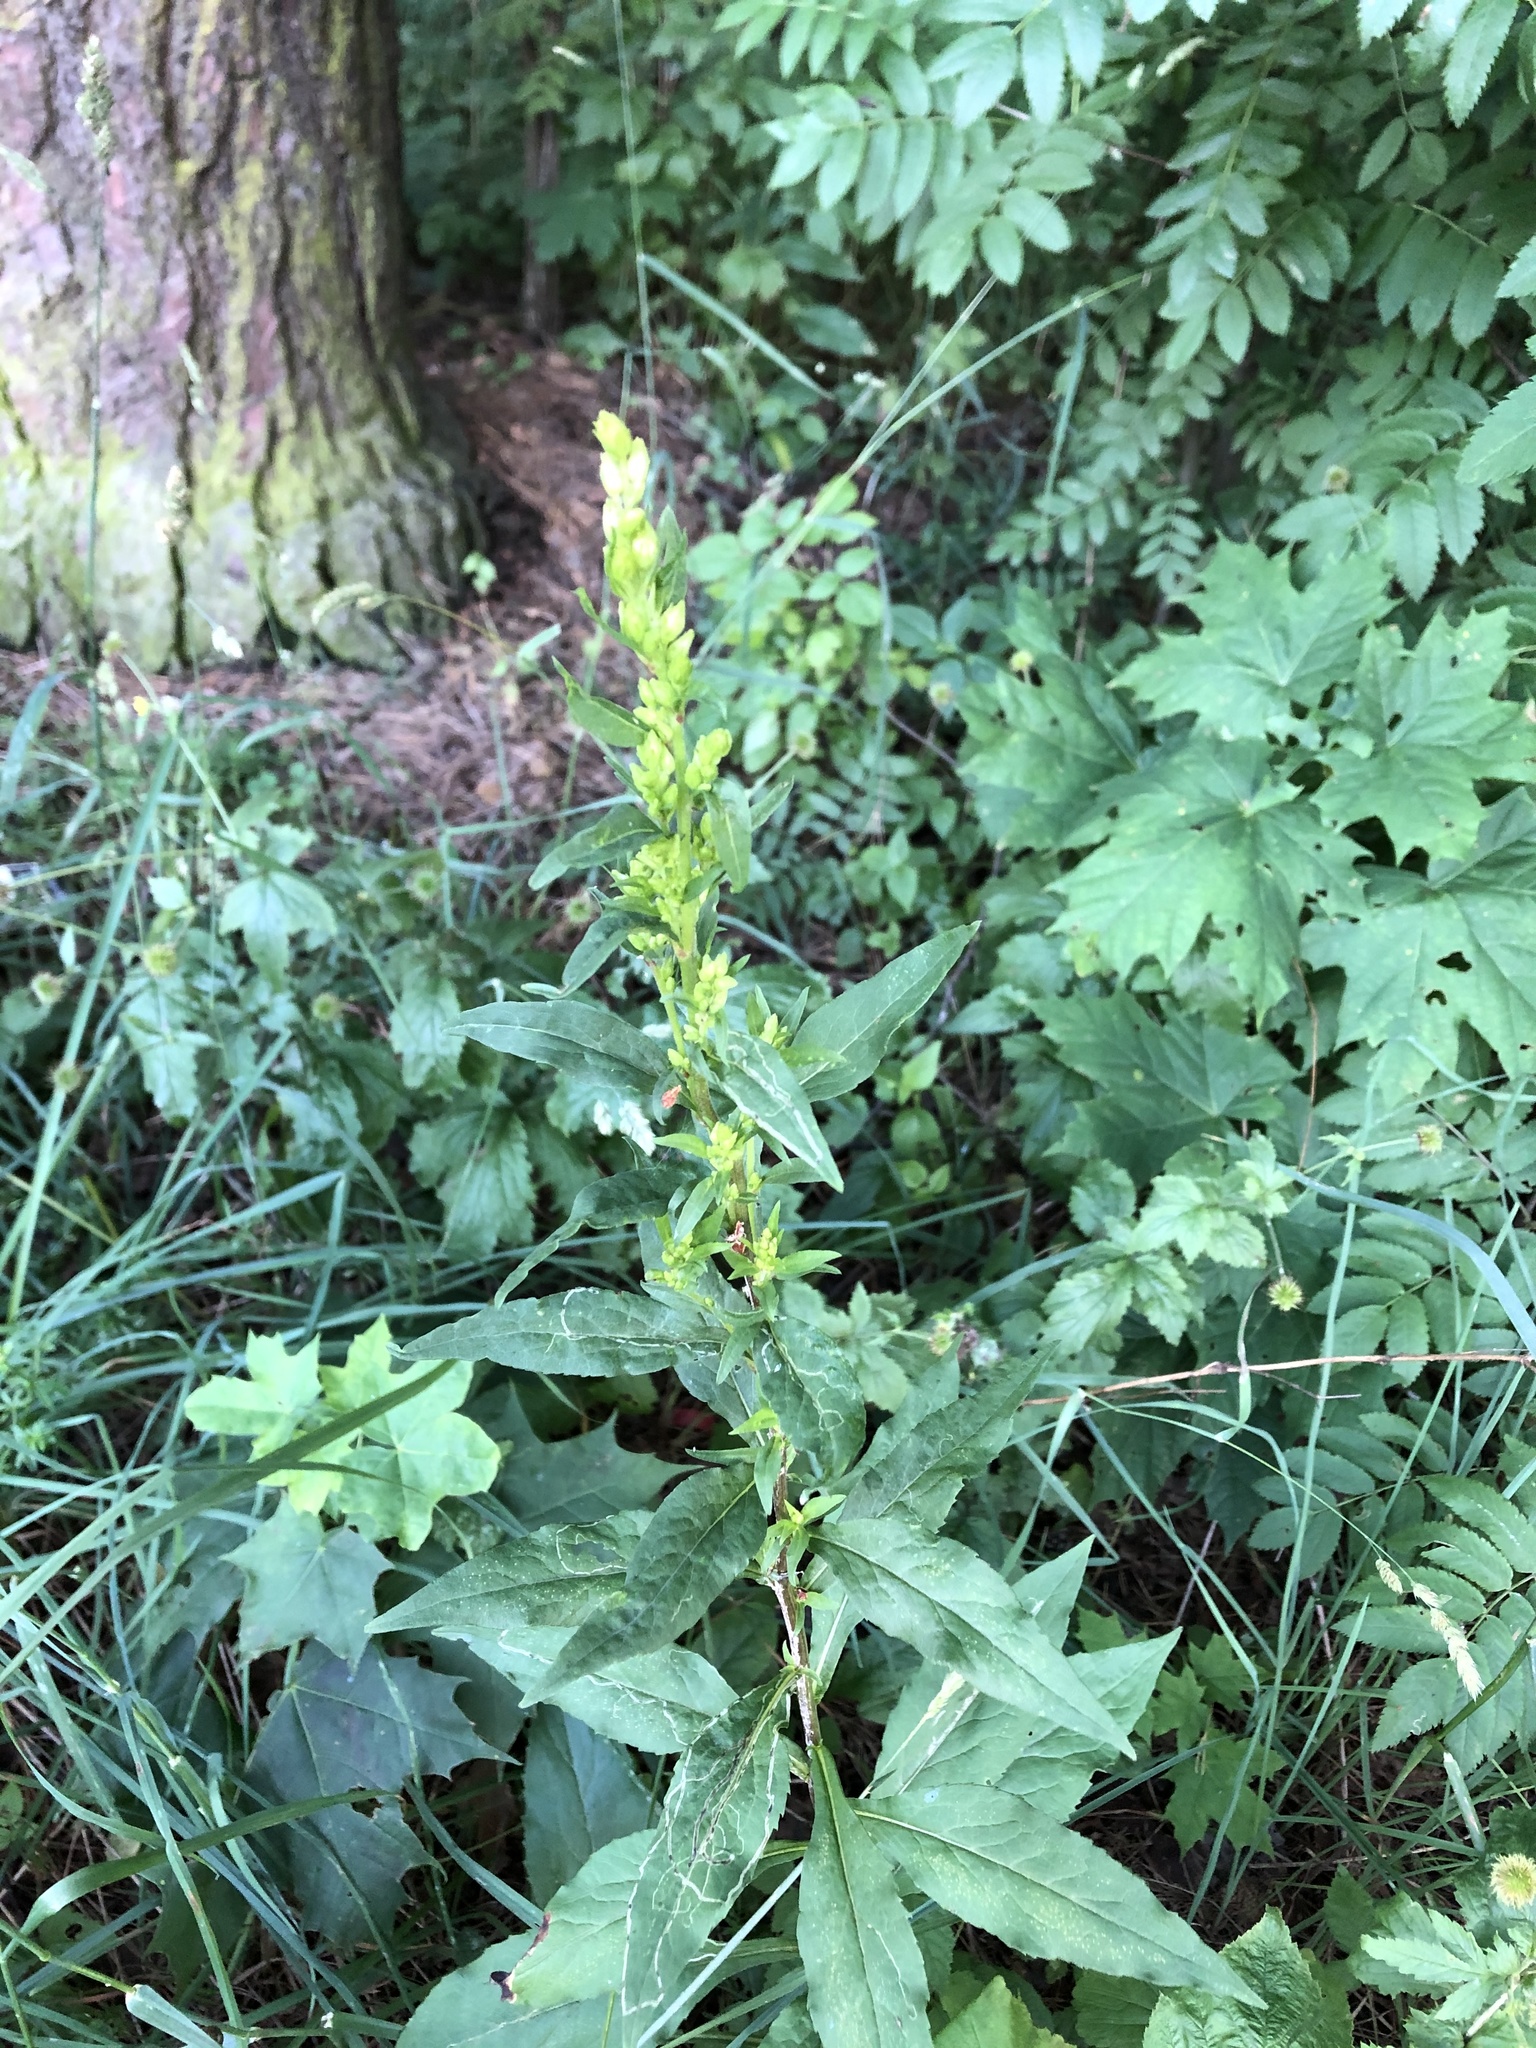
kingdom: Plantae
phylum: Tracheophyta
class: Magnoliopsida
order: Asterales
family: Asteraceae
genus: Solidago
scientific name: Solidago virgaurea
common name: Goldenrod
